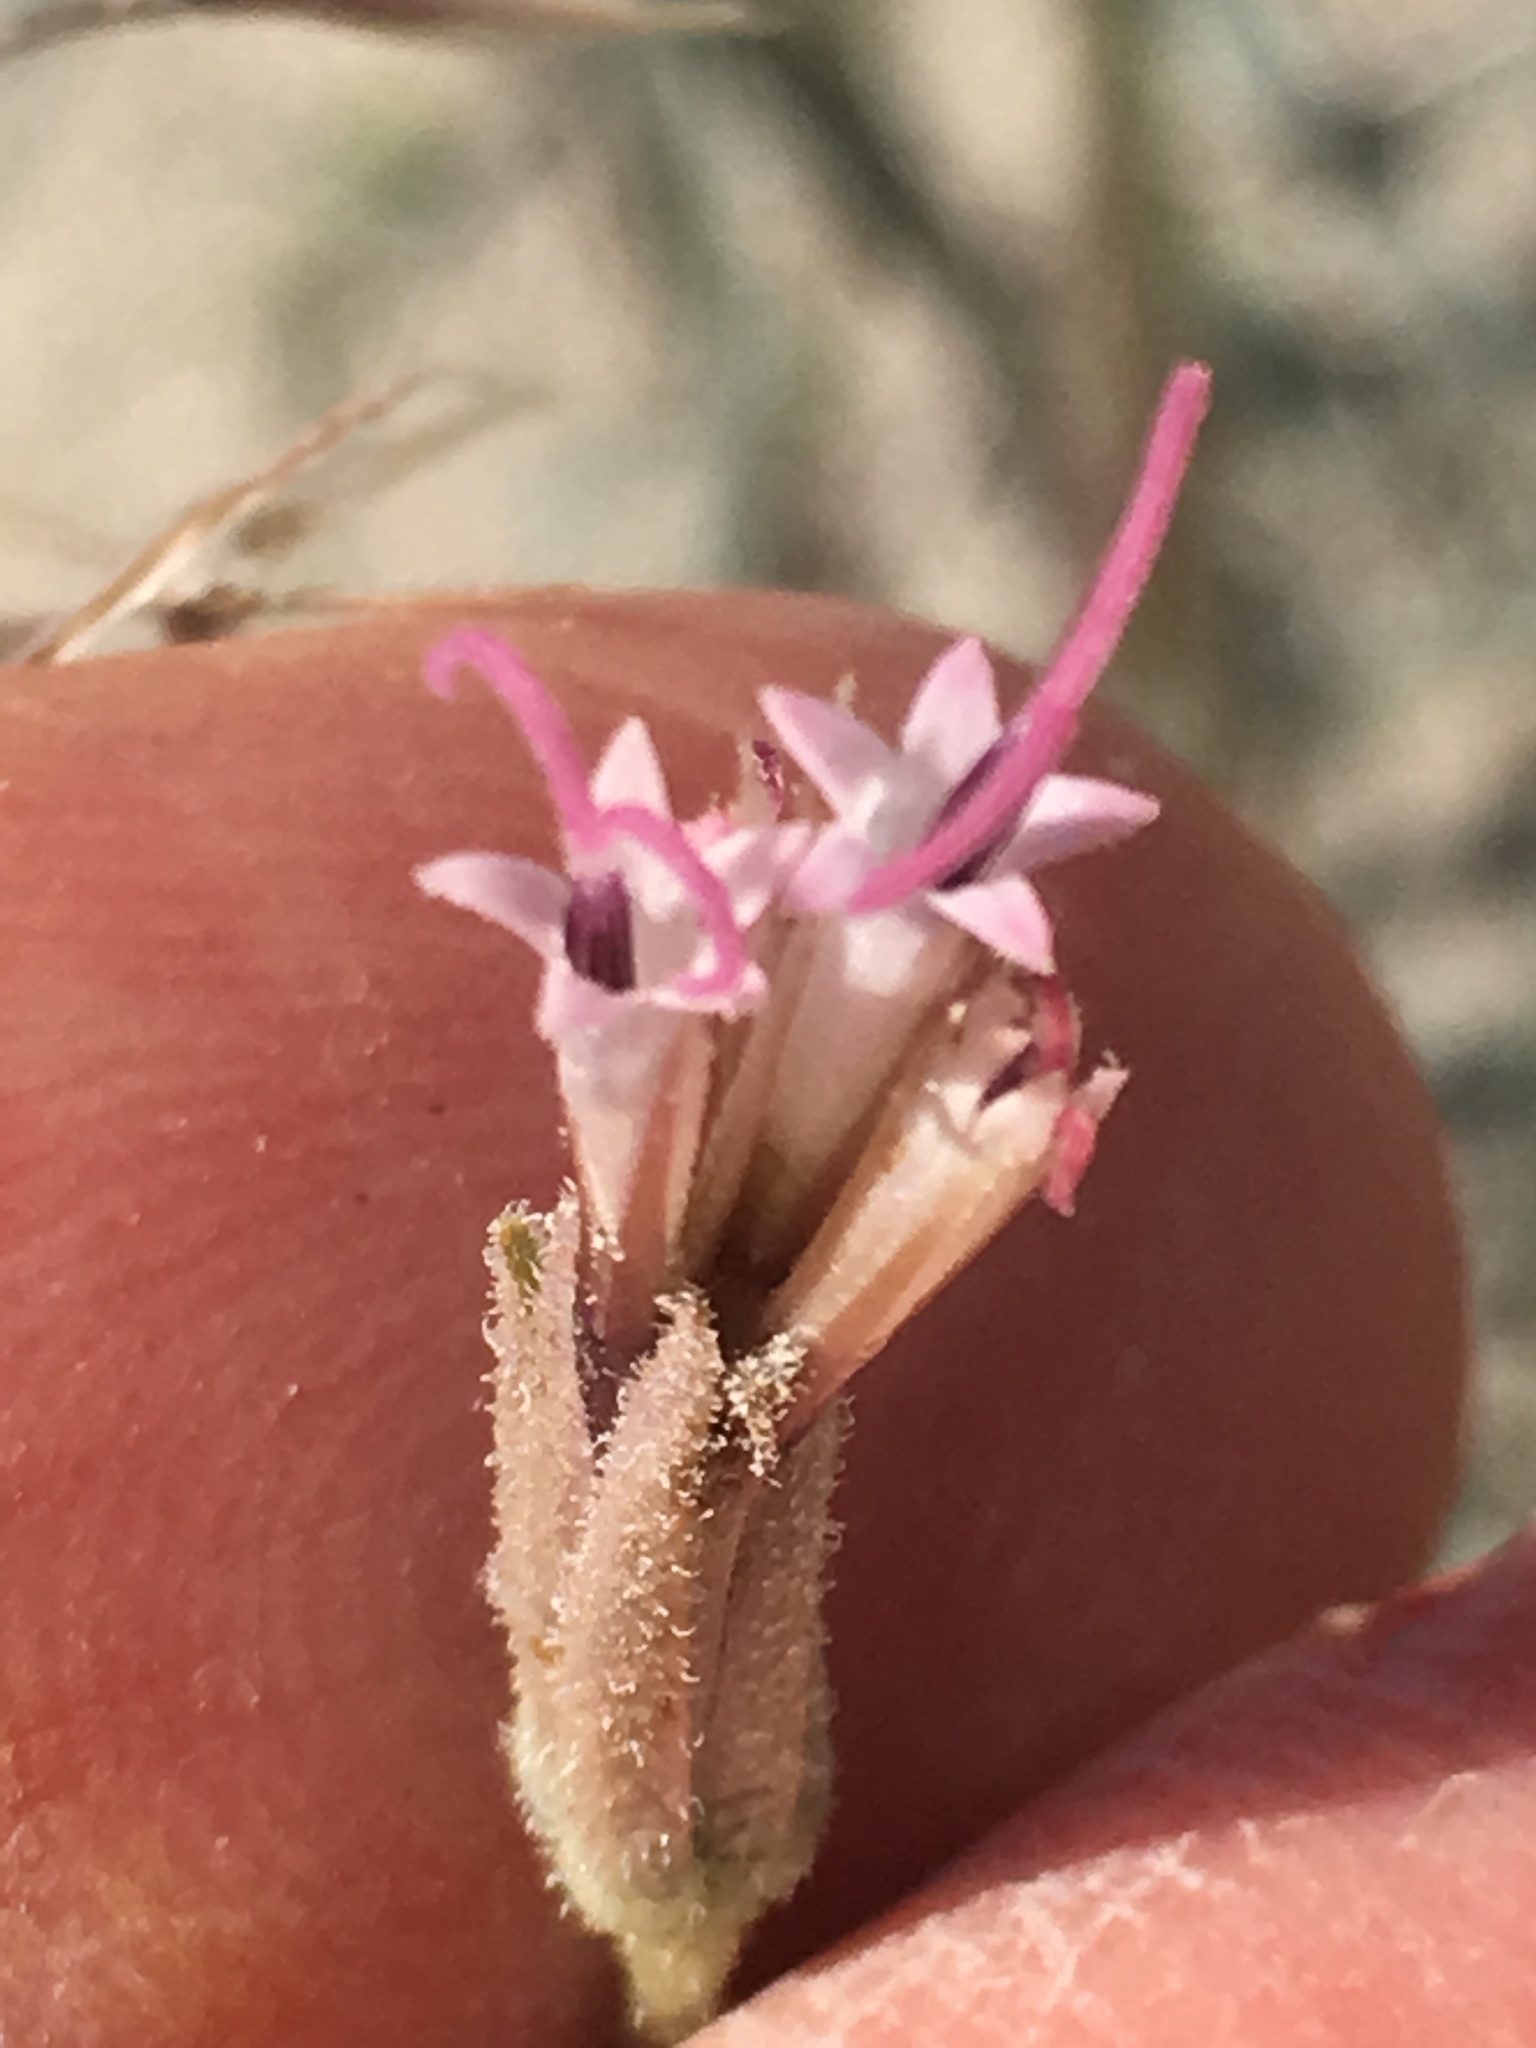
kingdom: Plantae
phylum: Tracheophyta
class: Magnoliopsida
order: Asterales
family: Asteraceae
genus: Palafoxia
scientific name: Palafoxia arida
